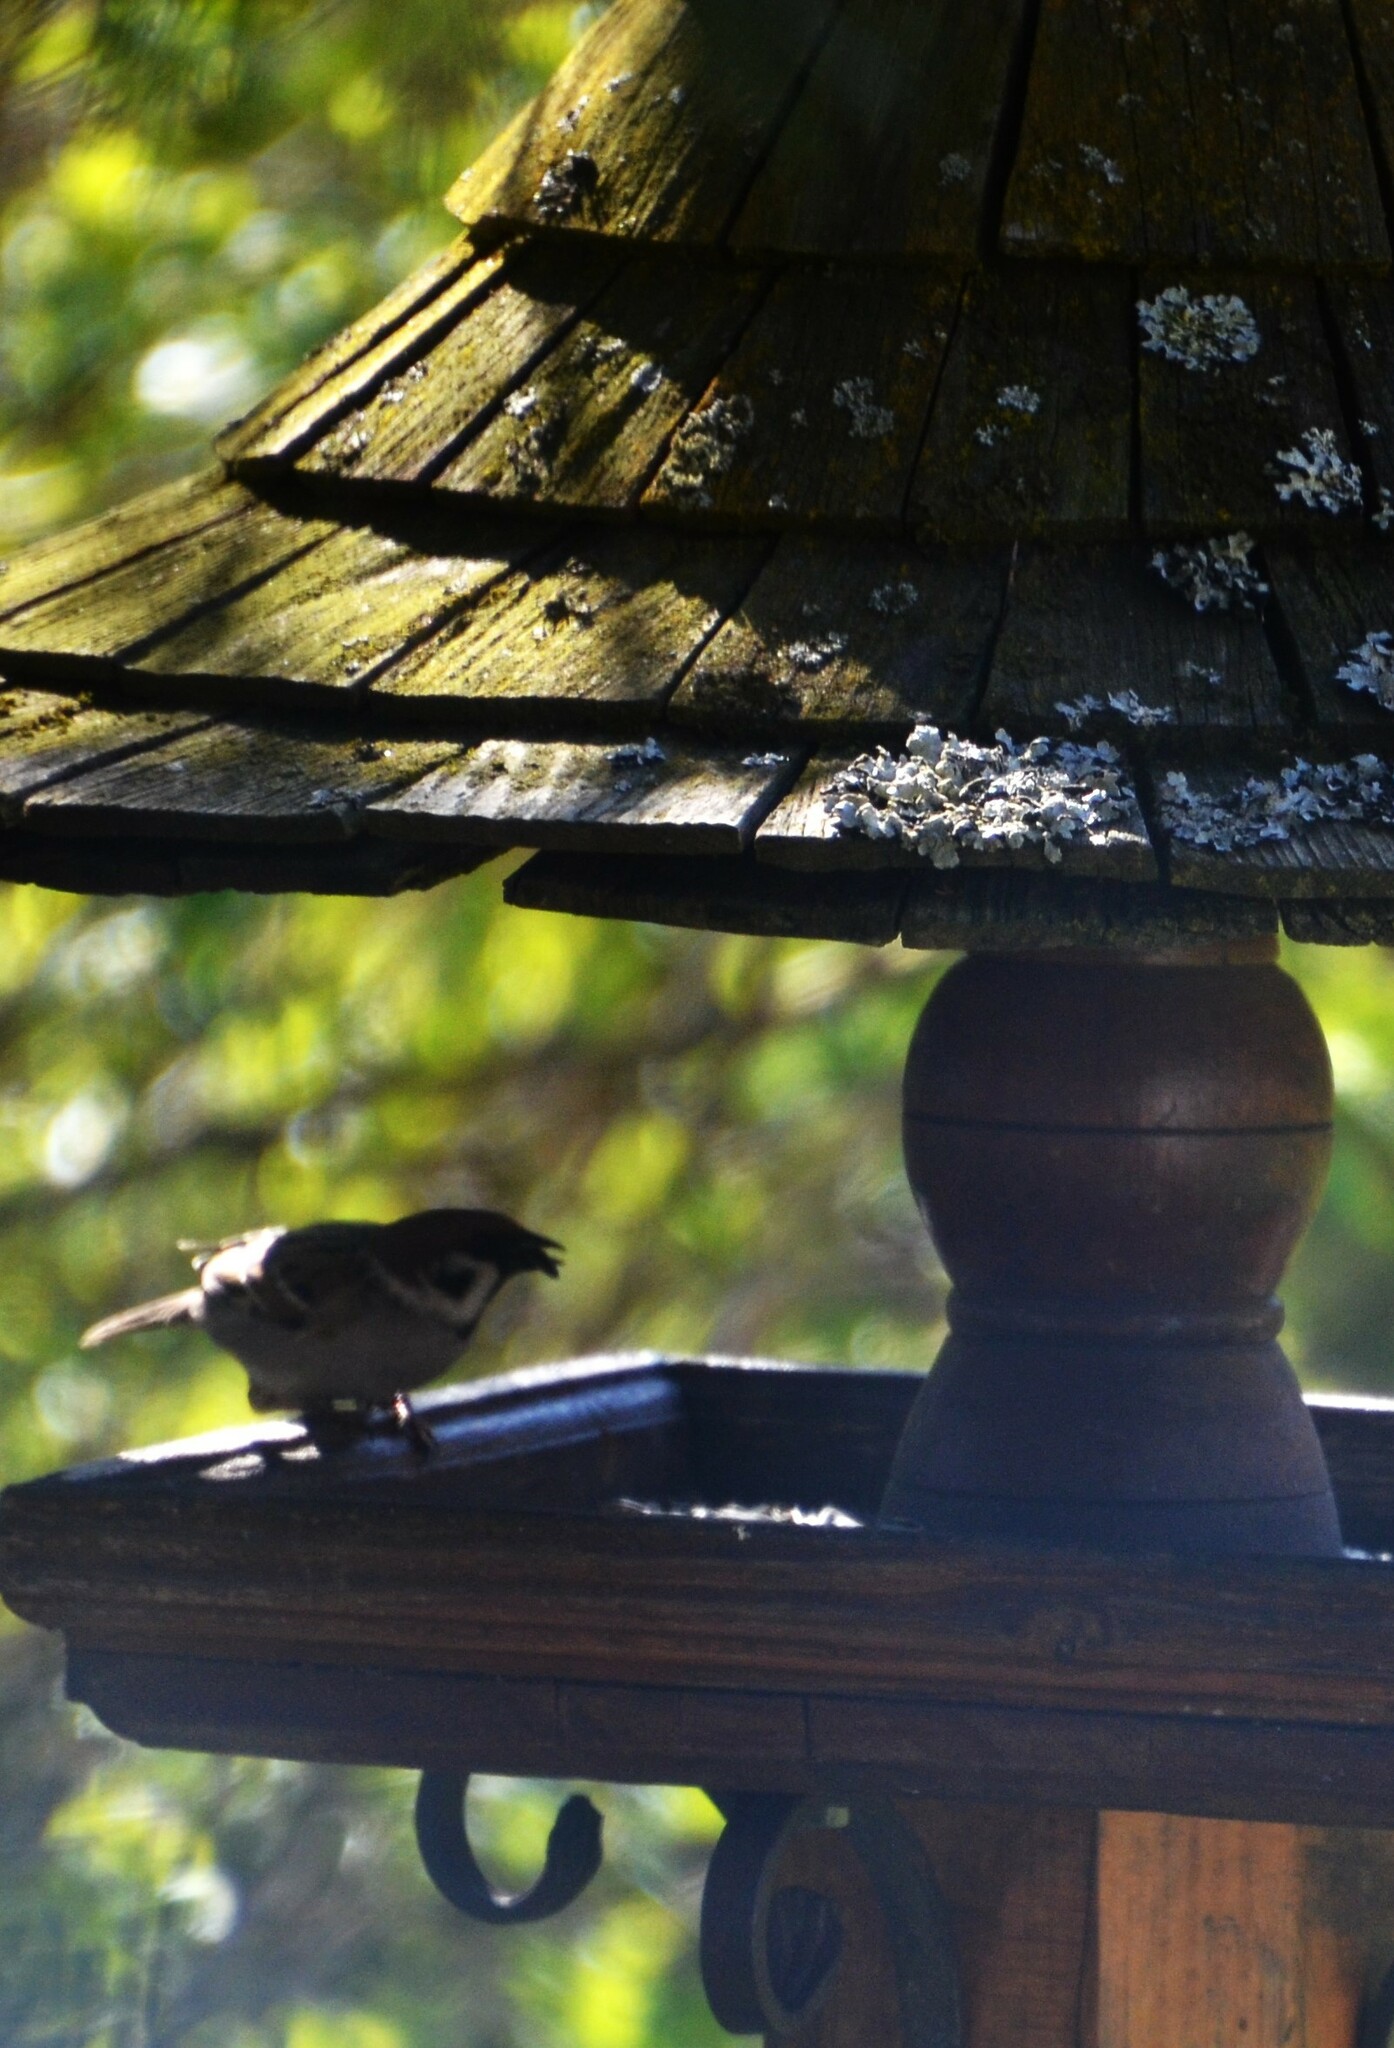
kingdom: Animalia
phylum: Chordata
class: Aves
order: Passeriformes
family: Passeridae
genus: Passer
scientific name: Passer montanus
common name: Eurasian tree sparrow
